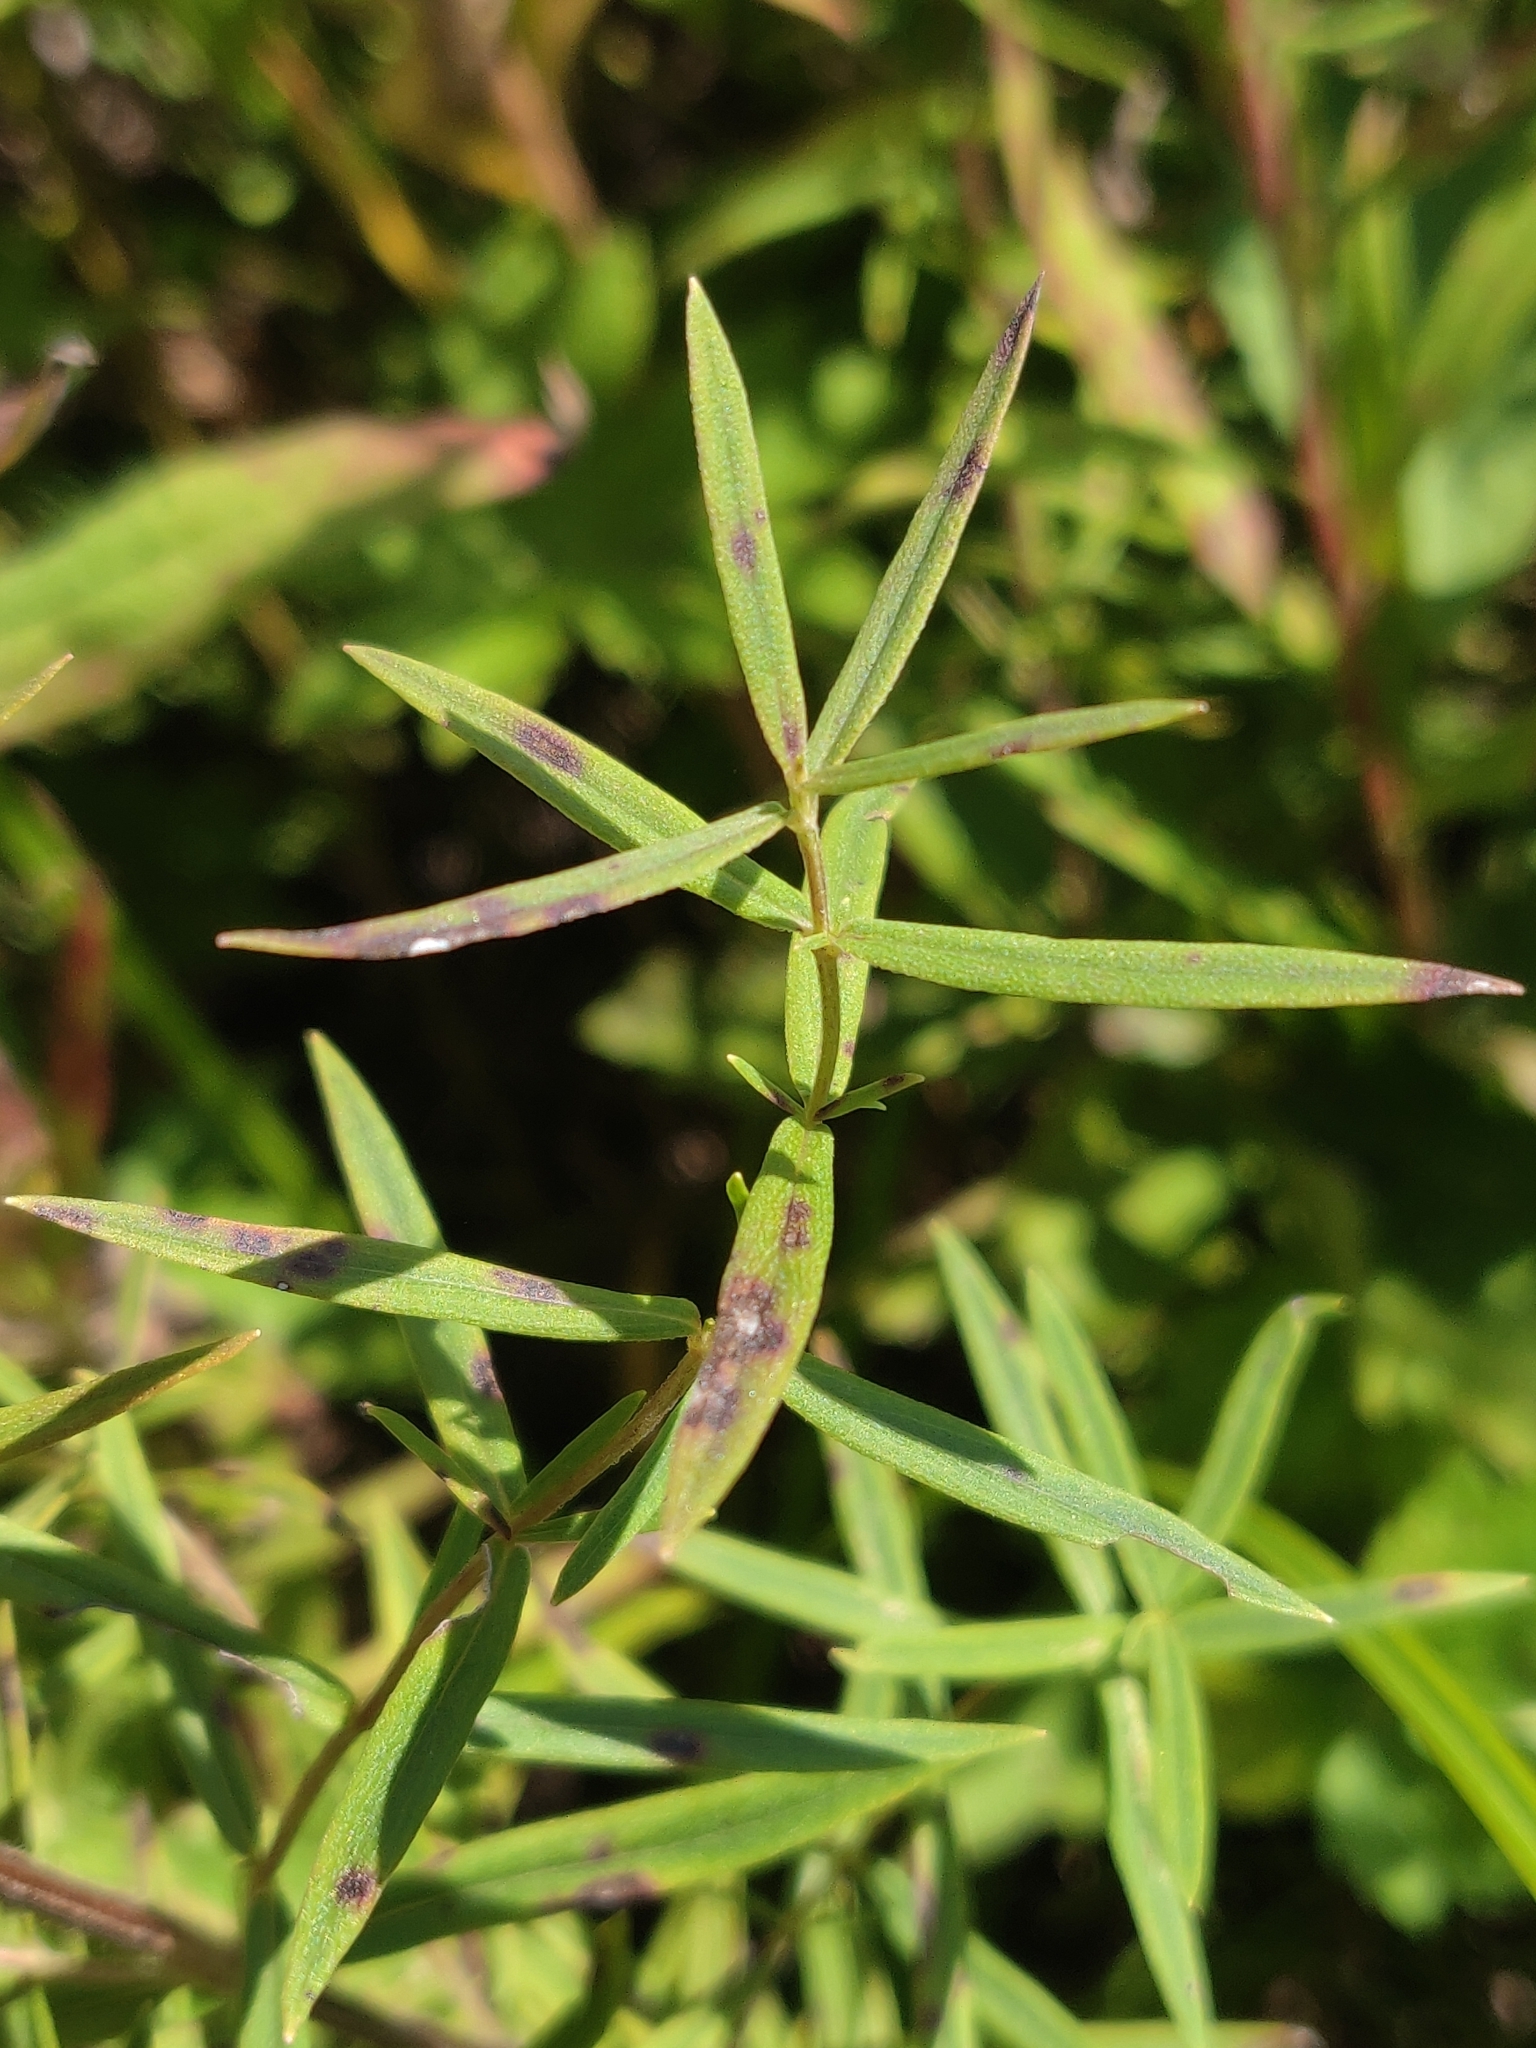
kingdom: Plantae
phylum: Tracheophyta
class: Magnoliopsida
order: Lamiales
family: Lamiaceae
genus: Pycnanthemum
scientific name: Pycnanthemum virginianum
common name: Virginia mountain-mint
